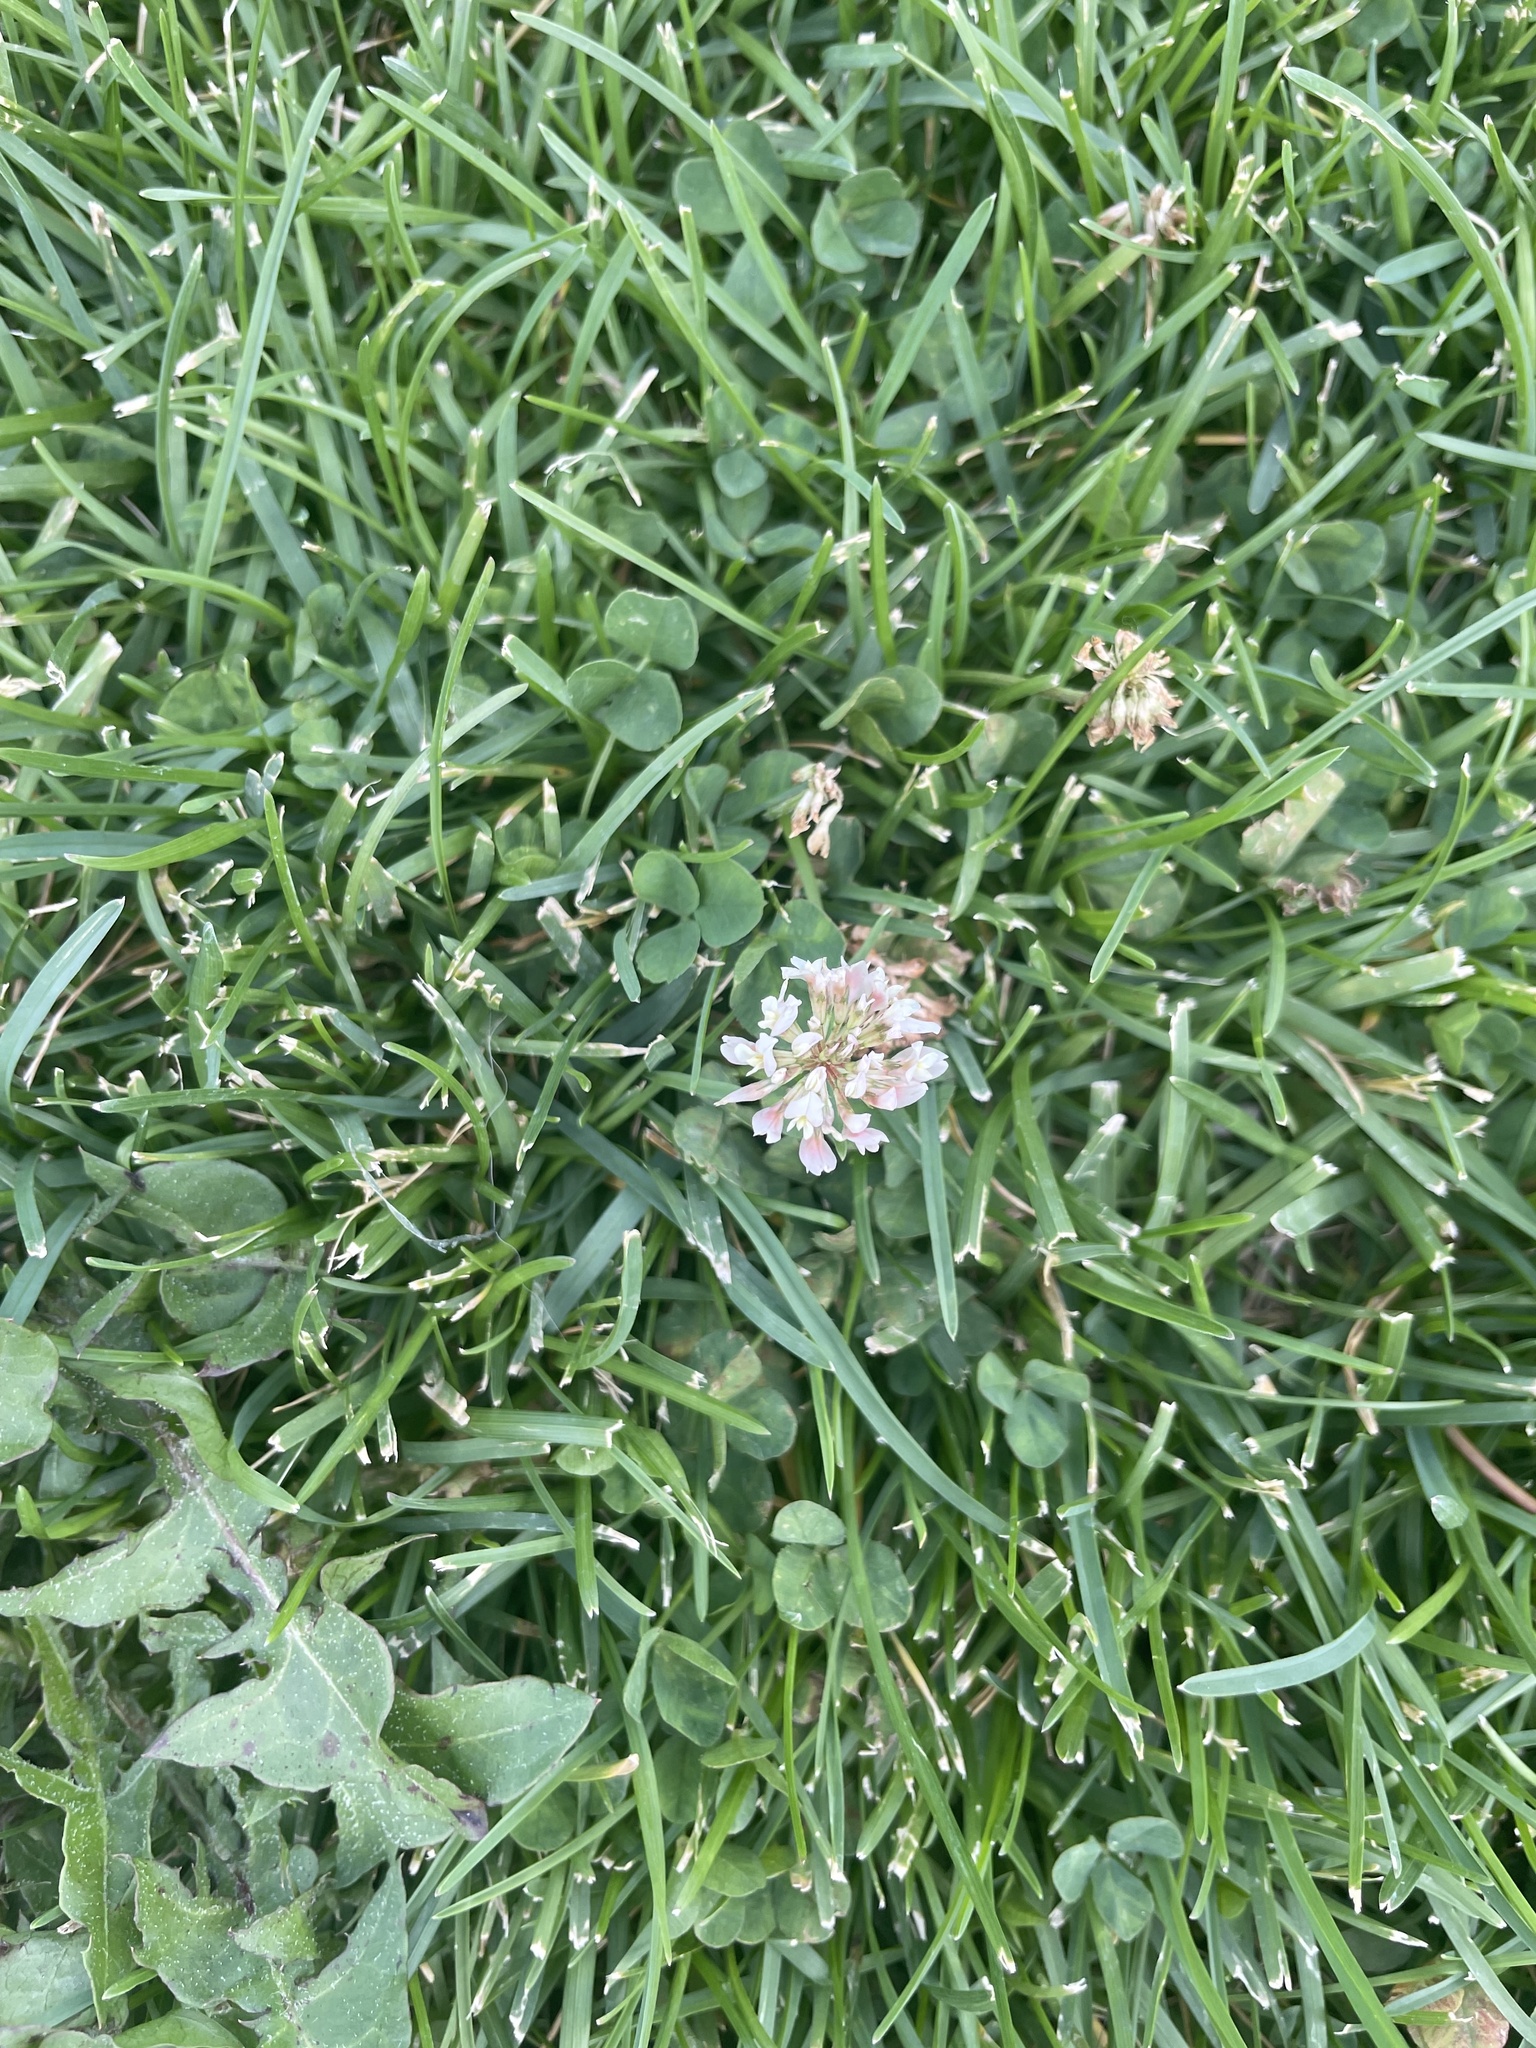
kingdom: Plantae
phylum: Tracheophyta
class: Magnoliopsida
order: Fabales
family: Fabaceae
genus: Trifolium
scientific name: Trifolium repens
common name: White clover
